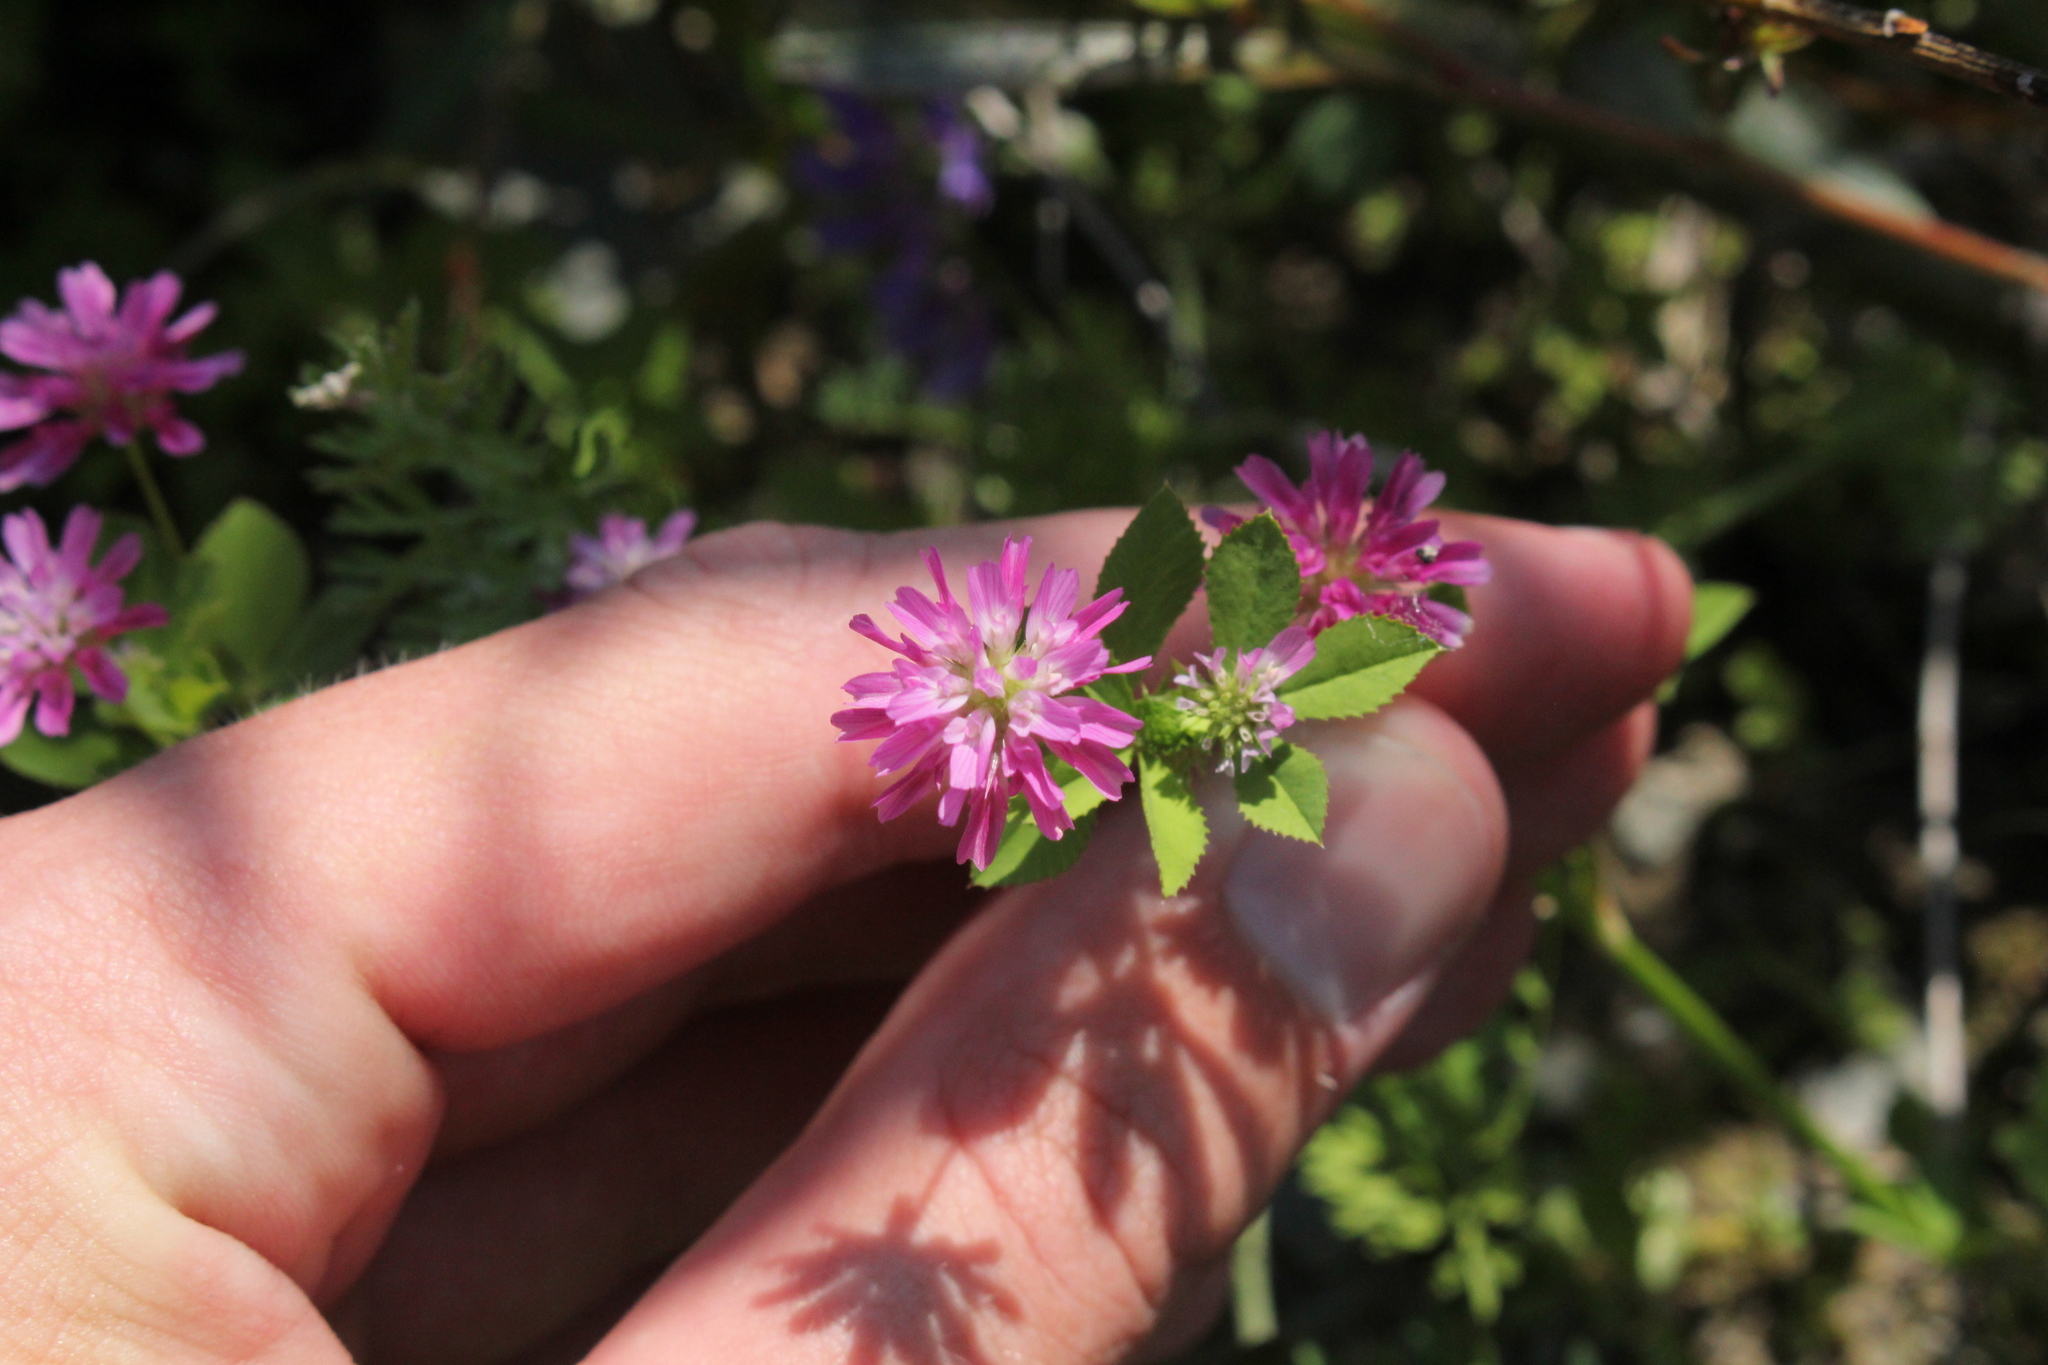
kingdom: Plantae
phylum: Tracheophyta
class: Magnoliopsida
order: Fabales
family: Fabaceae
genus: Trifolium
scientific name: Trifolium resupinatum
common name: Reversed clover
